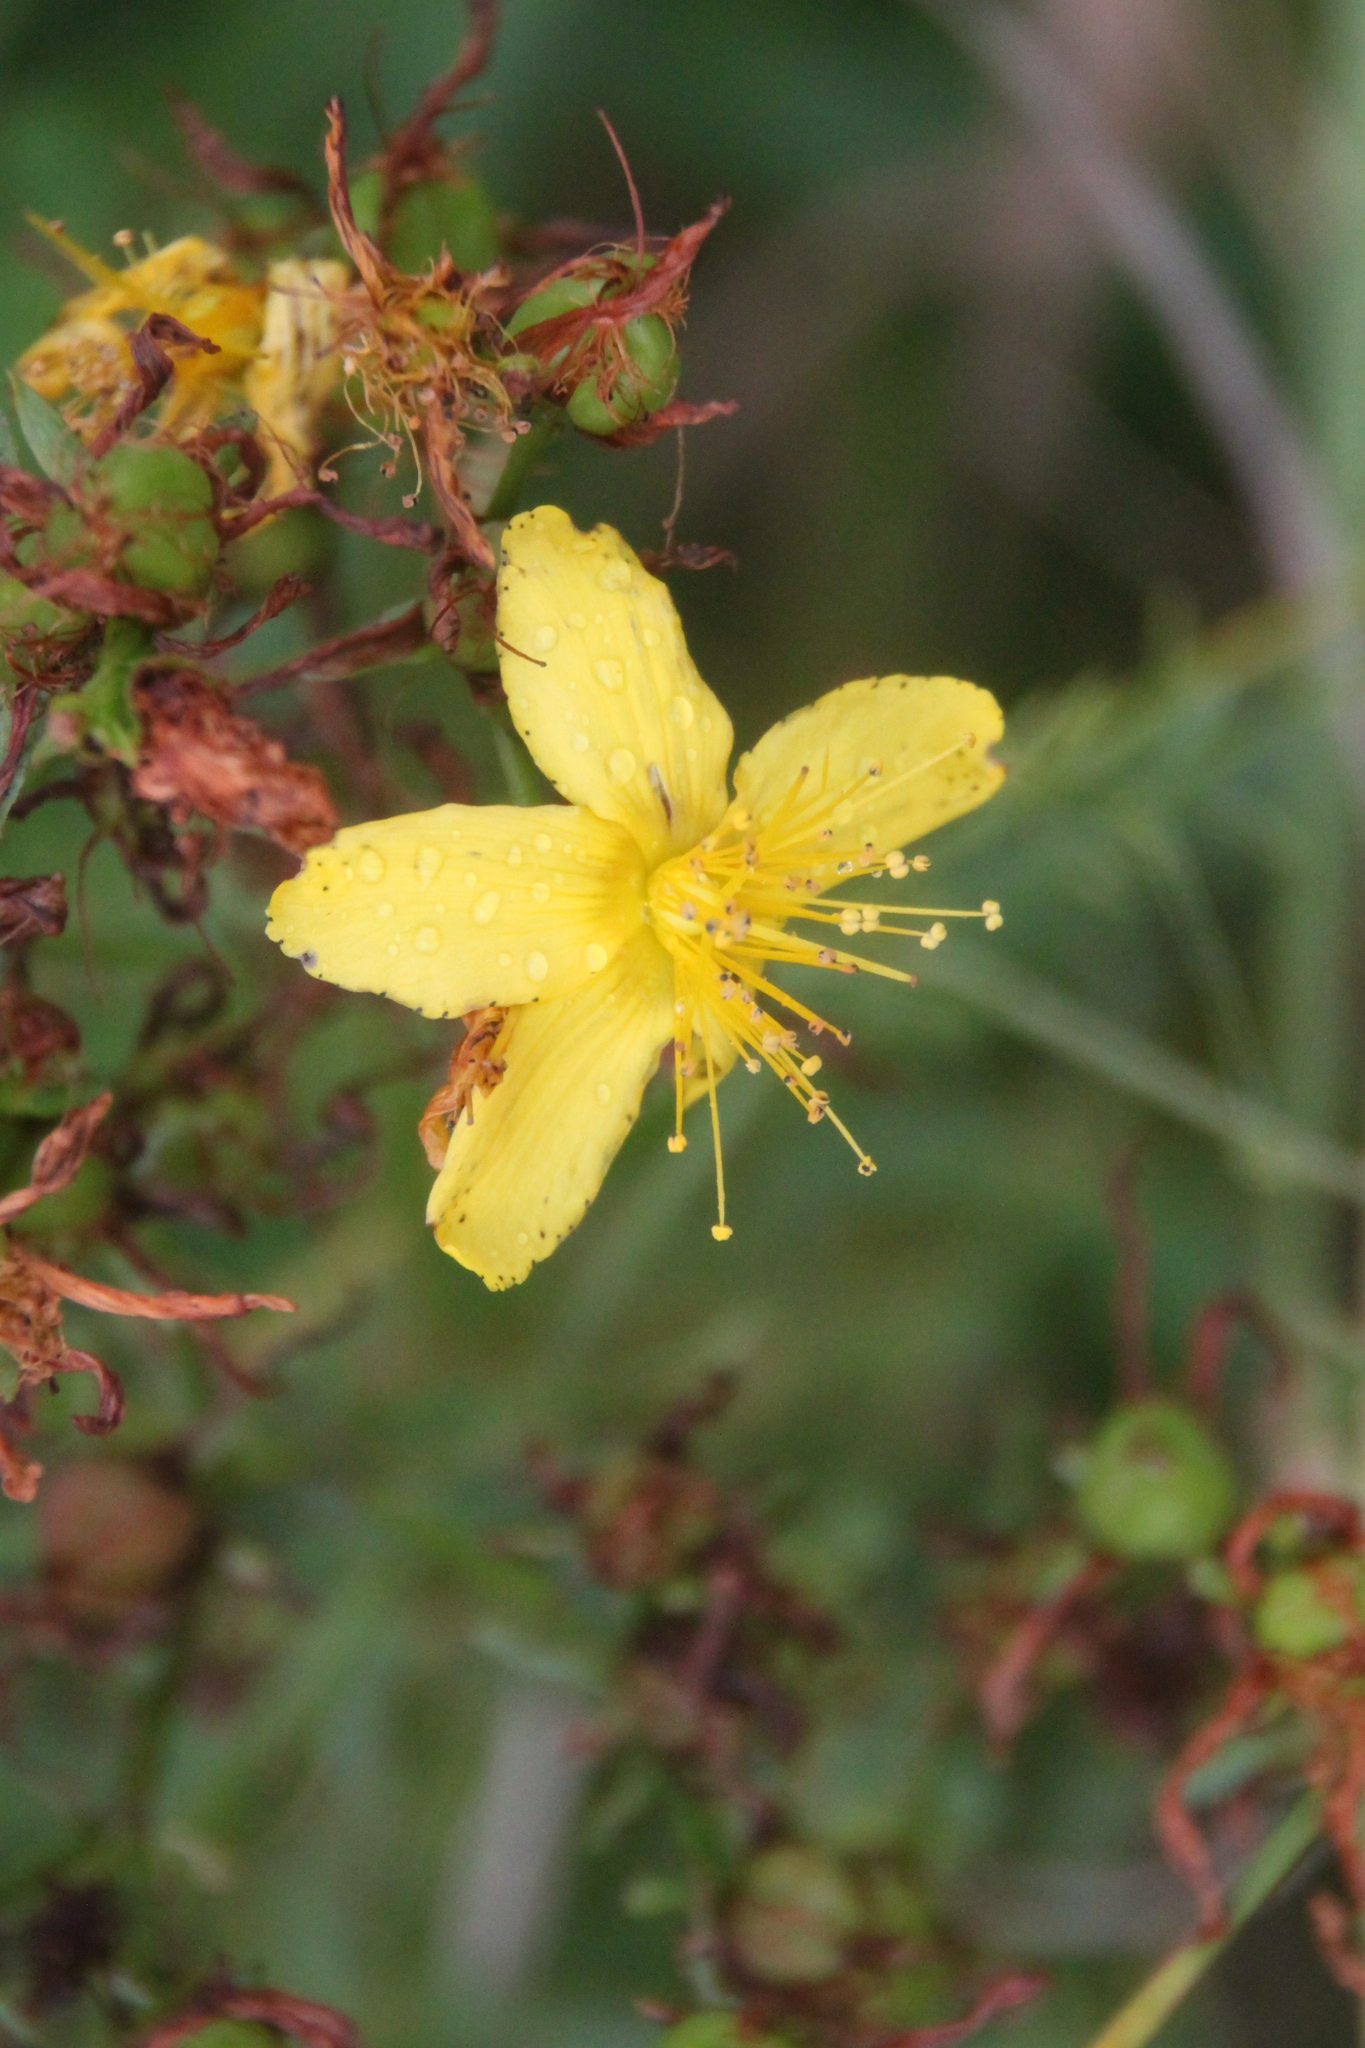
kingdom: Plantae
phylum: Tracheophyta
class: Magnoliopsida
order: Malpighiales
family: Hypericaceae
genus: Hypericum
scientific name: Hypericum perforatum
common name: Common st. johnswort
